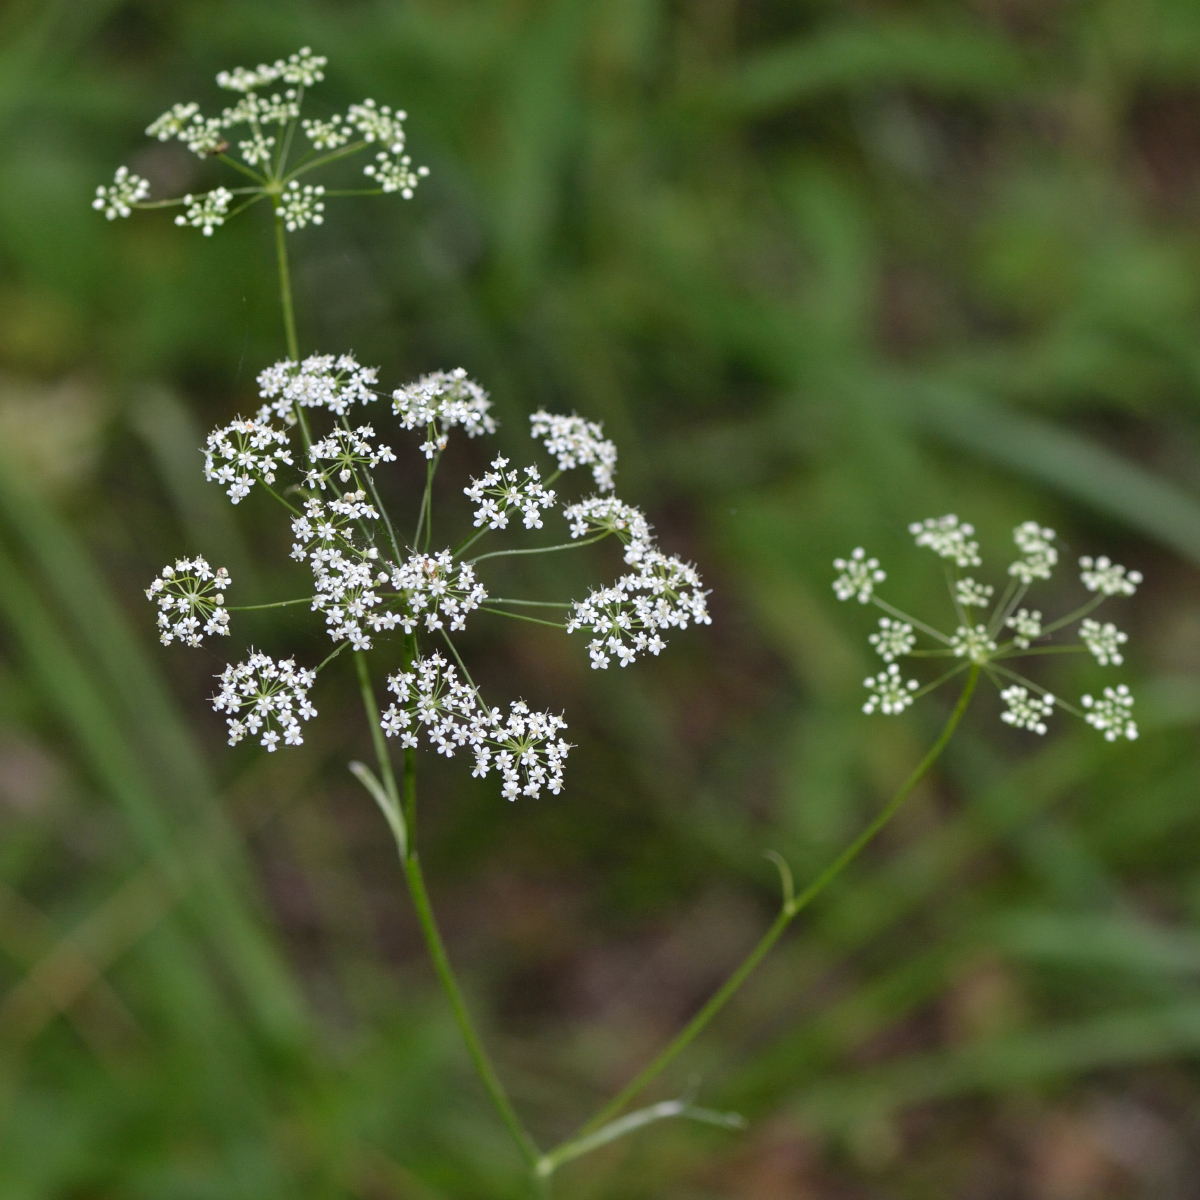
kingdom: Plantae
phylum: Tracheophyta
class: Magnoliopsida
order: Apiales
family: Apiaceae
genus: Pimpinella
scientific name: Pimpinella saxifraga
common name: Burnet-saxifrage
